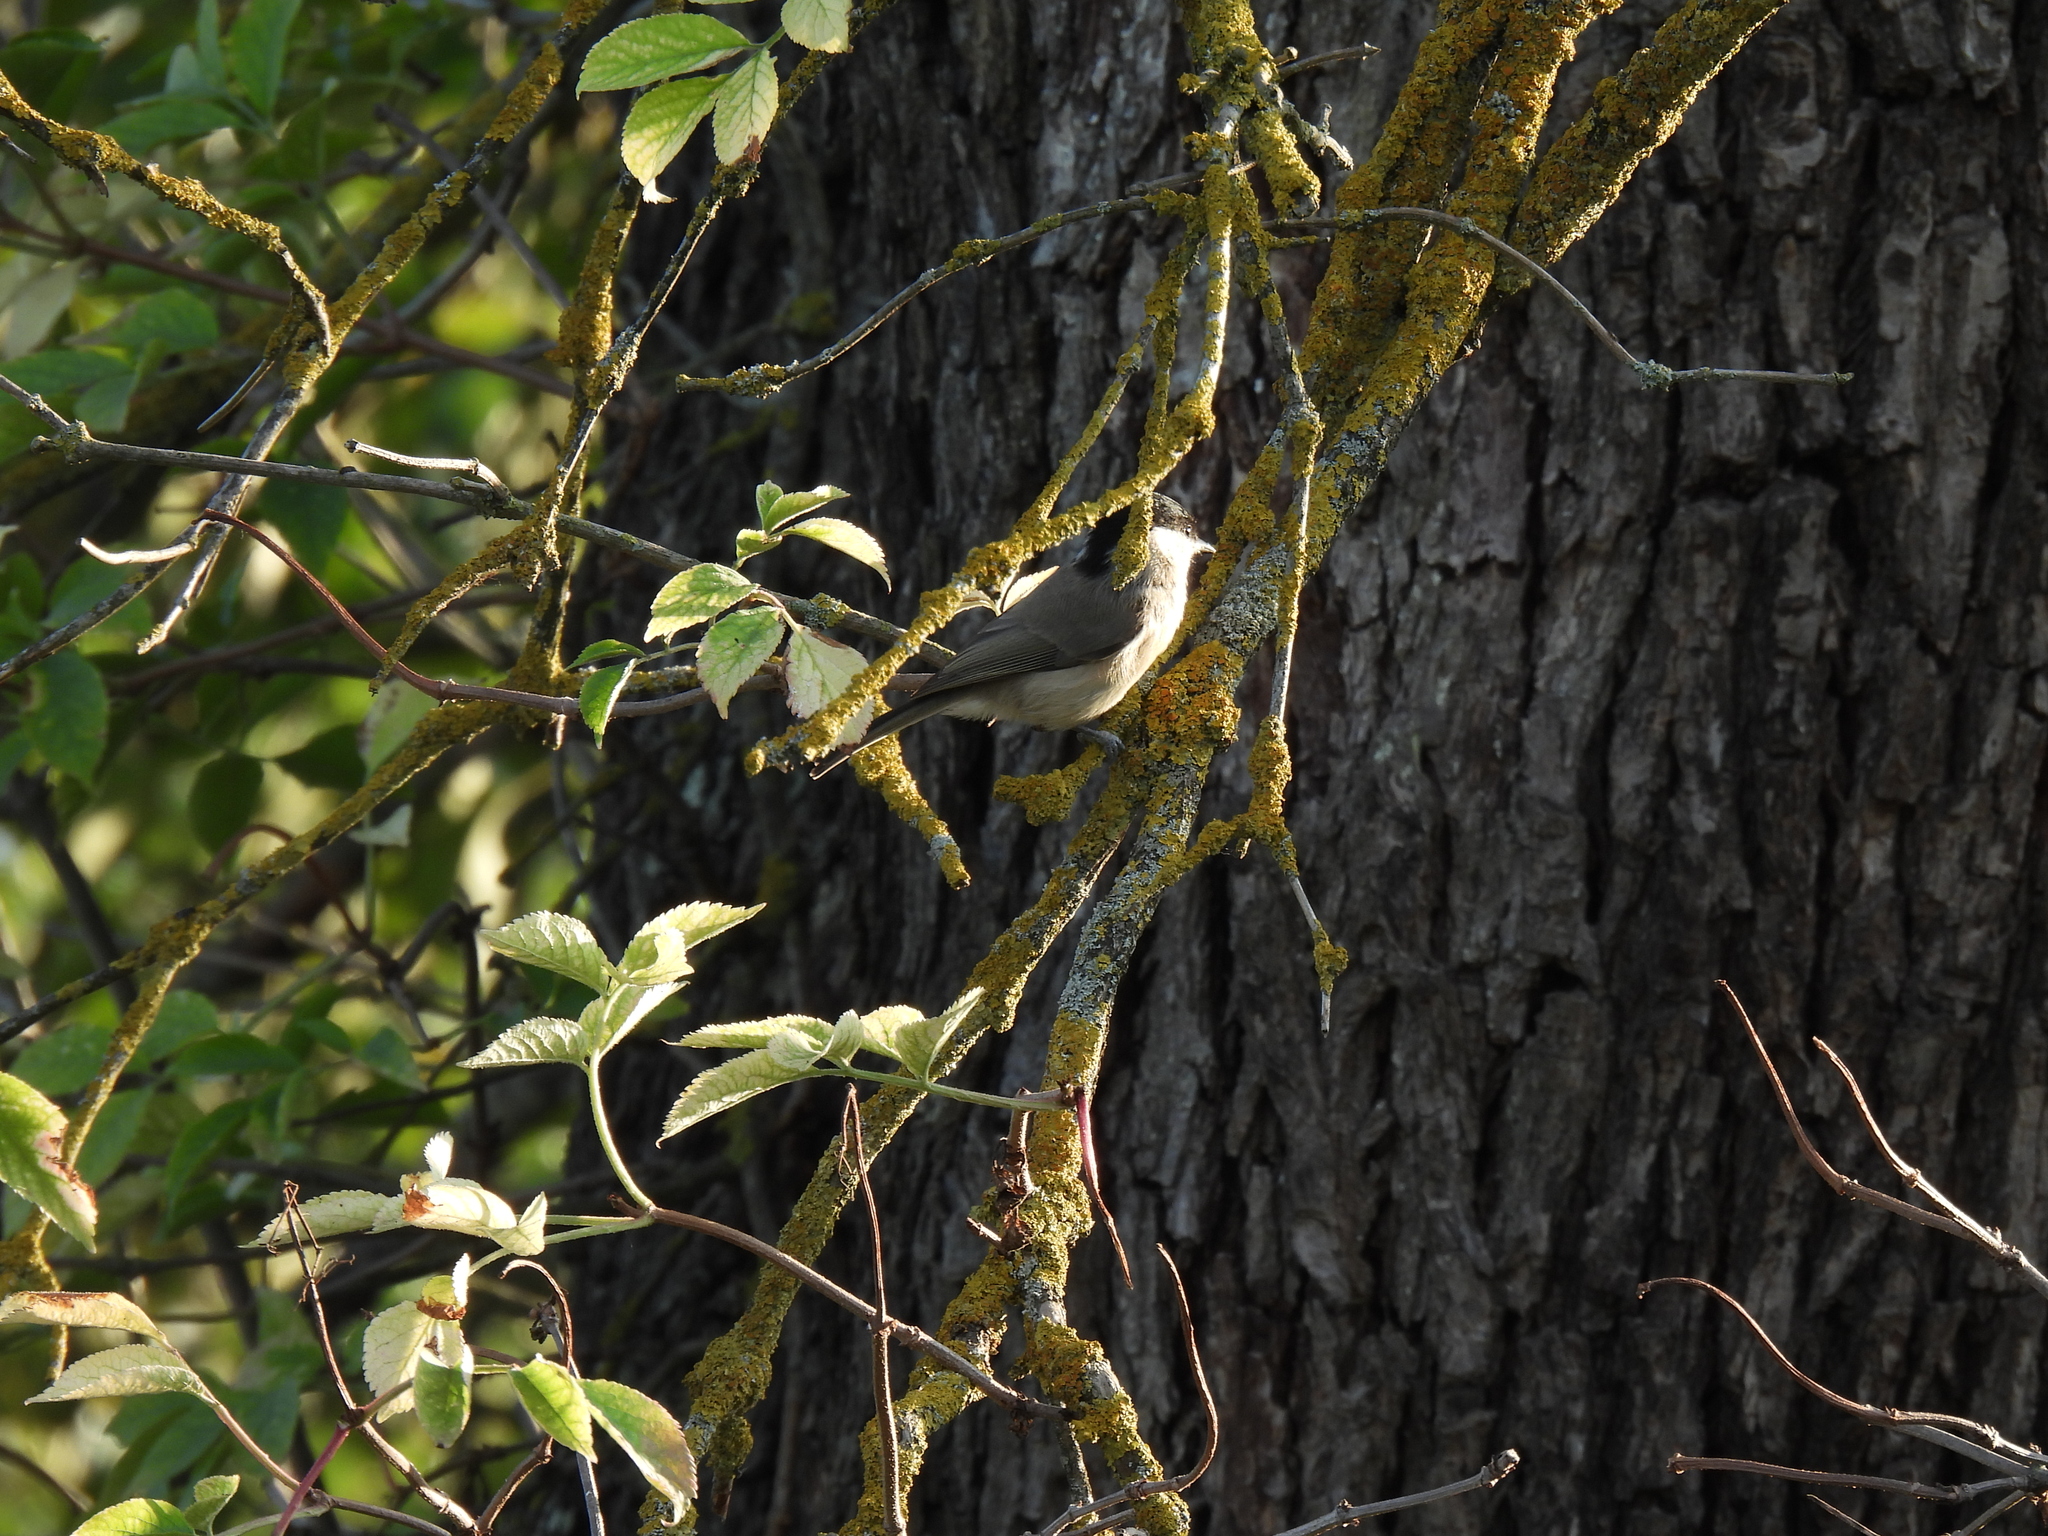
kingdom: Animalia
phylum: Chordata
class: Aves
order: Passeriformes
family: Paridae
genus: Poecile
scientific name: Poecile palustris
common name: Marsh tit
